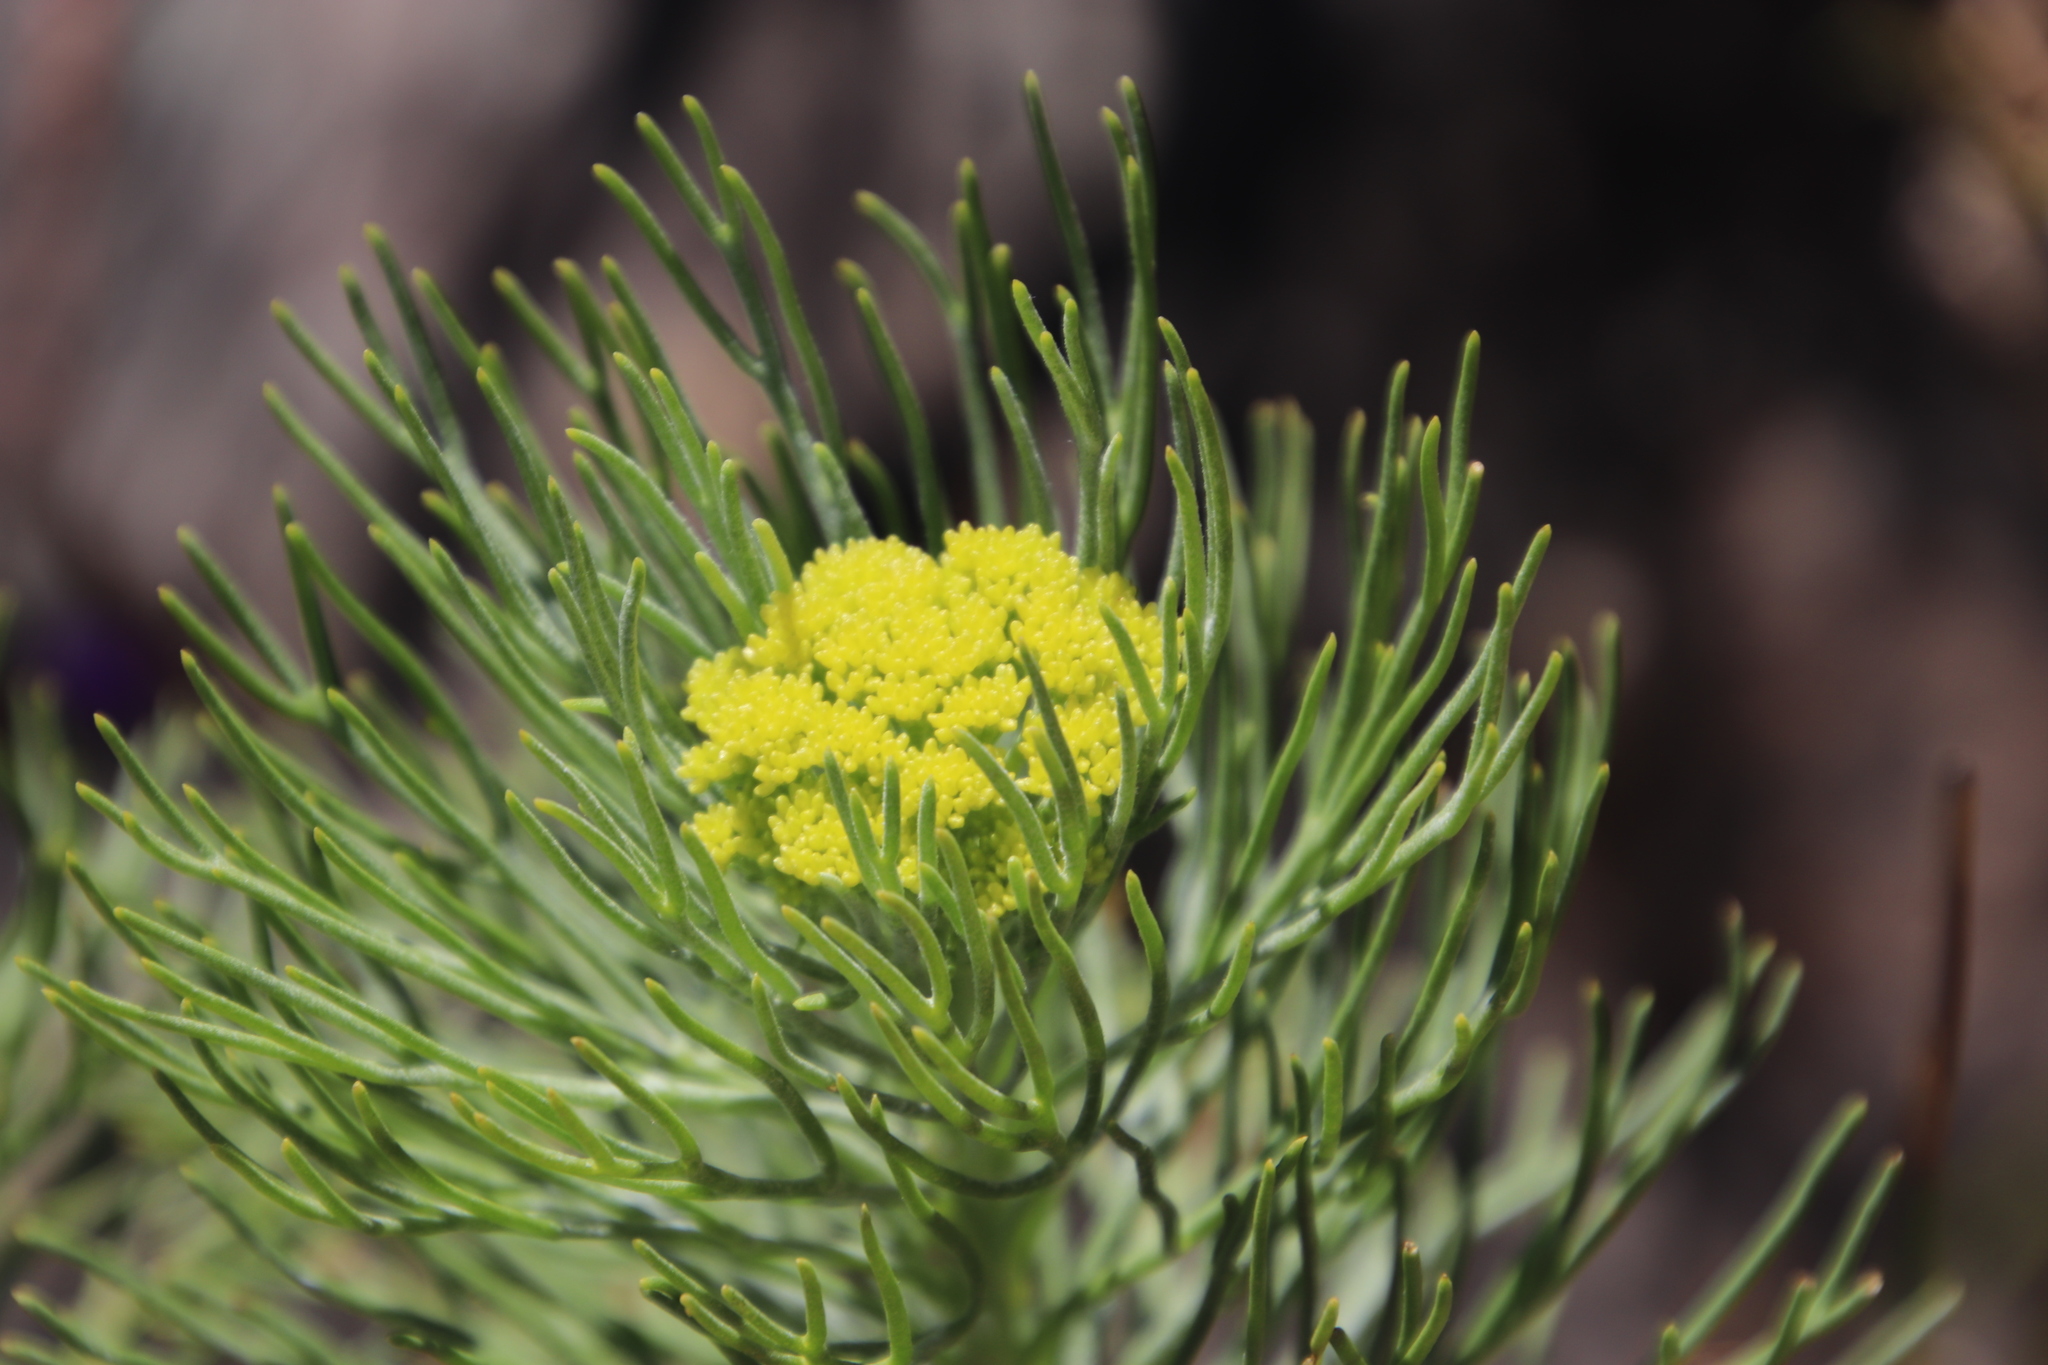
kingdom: Plantae
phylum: Tracheophyta
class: Magnoliopsida
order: Asterales
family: Asteraceae
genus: Hymenolepis
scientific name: Hymenolepis crithmifolia
